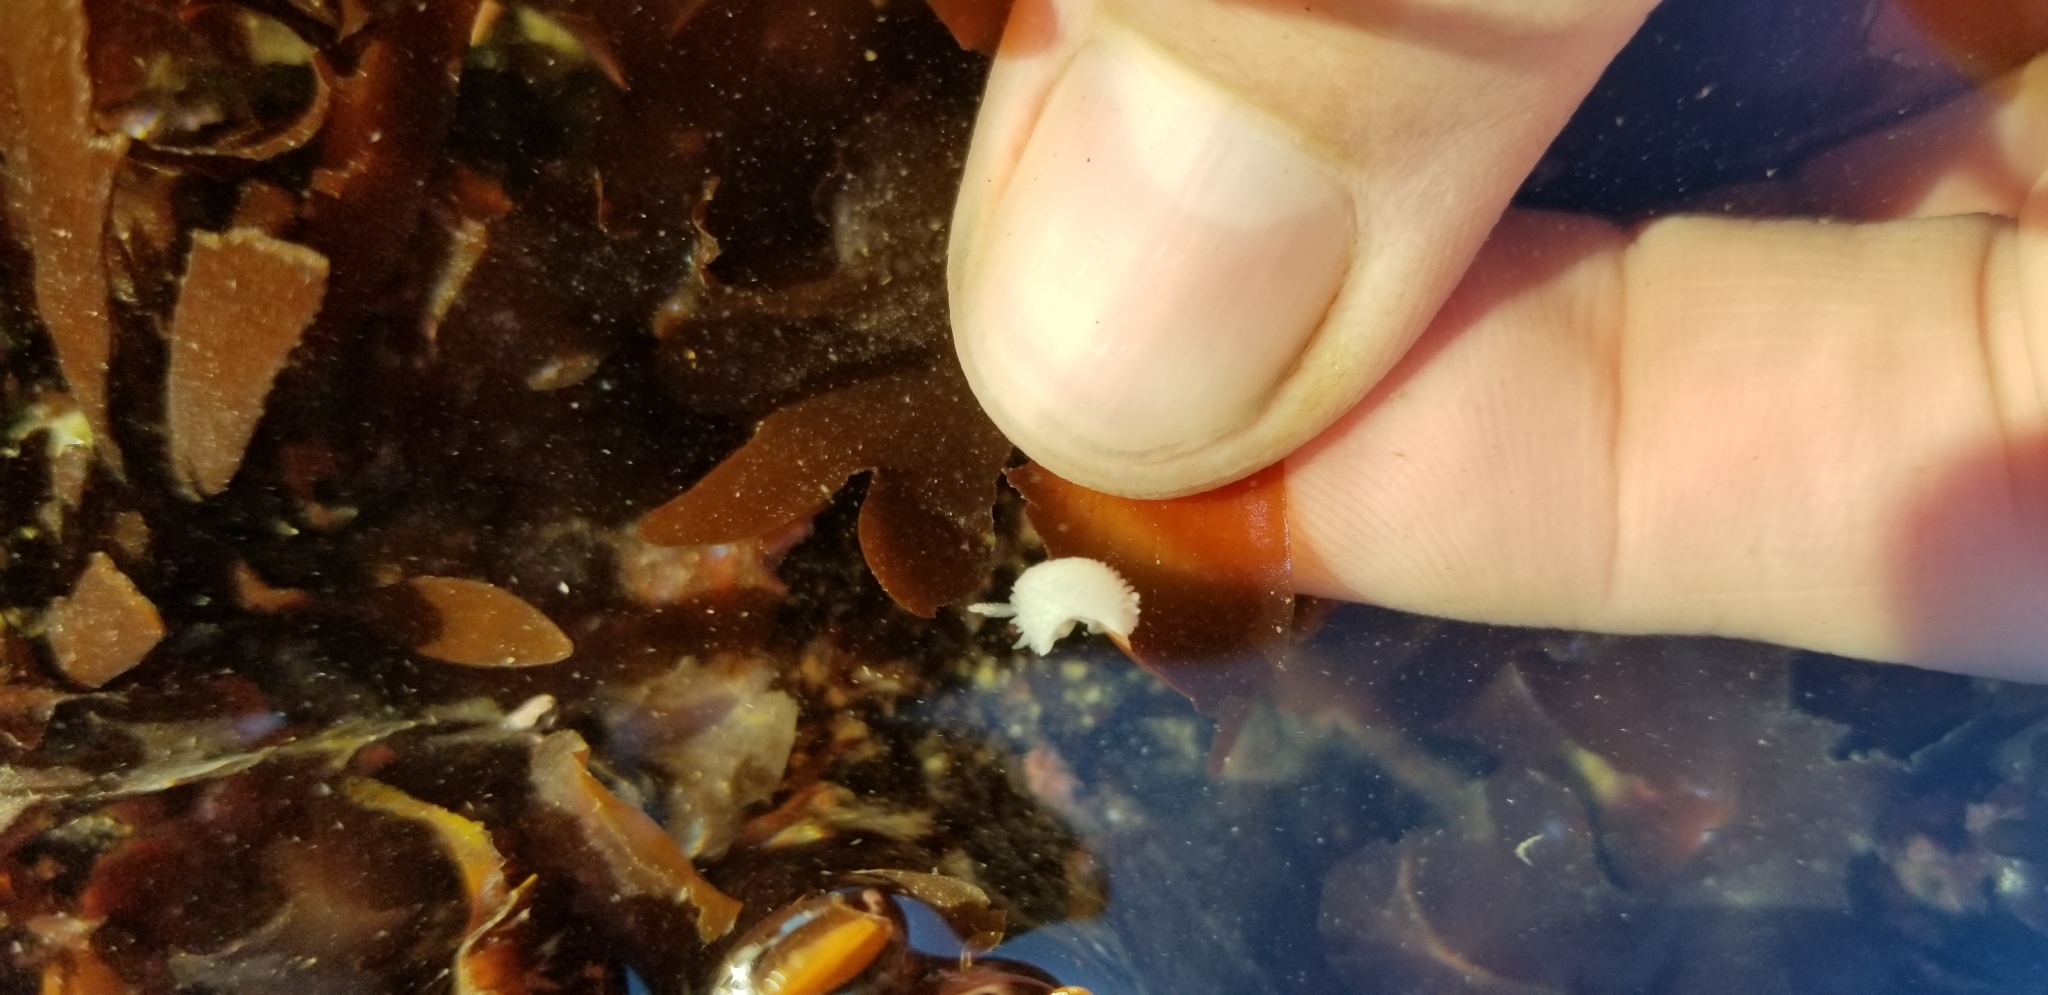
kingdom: Animalia
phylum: Mollusca
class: Gastropoda
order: Nudibranchia
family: Calycidorididae
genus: Diaphorodoris
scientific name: Diaphorodoris lirulatocauda
